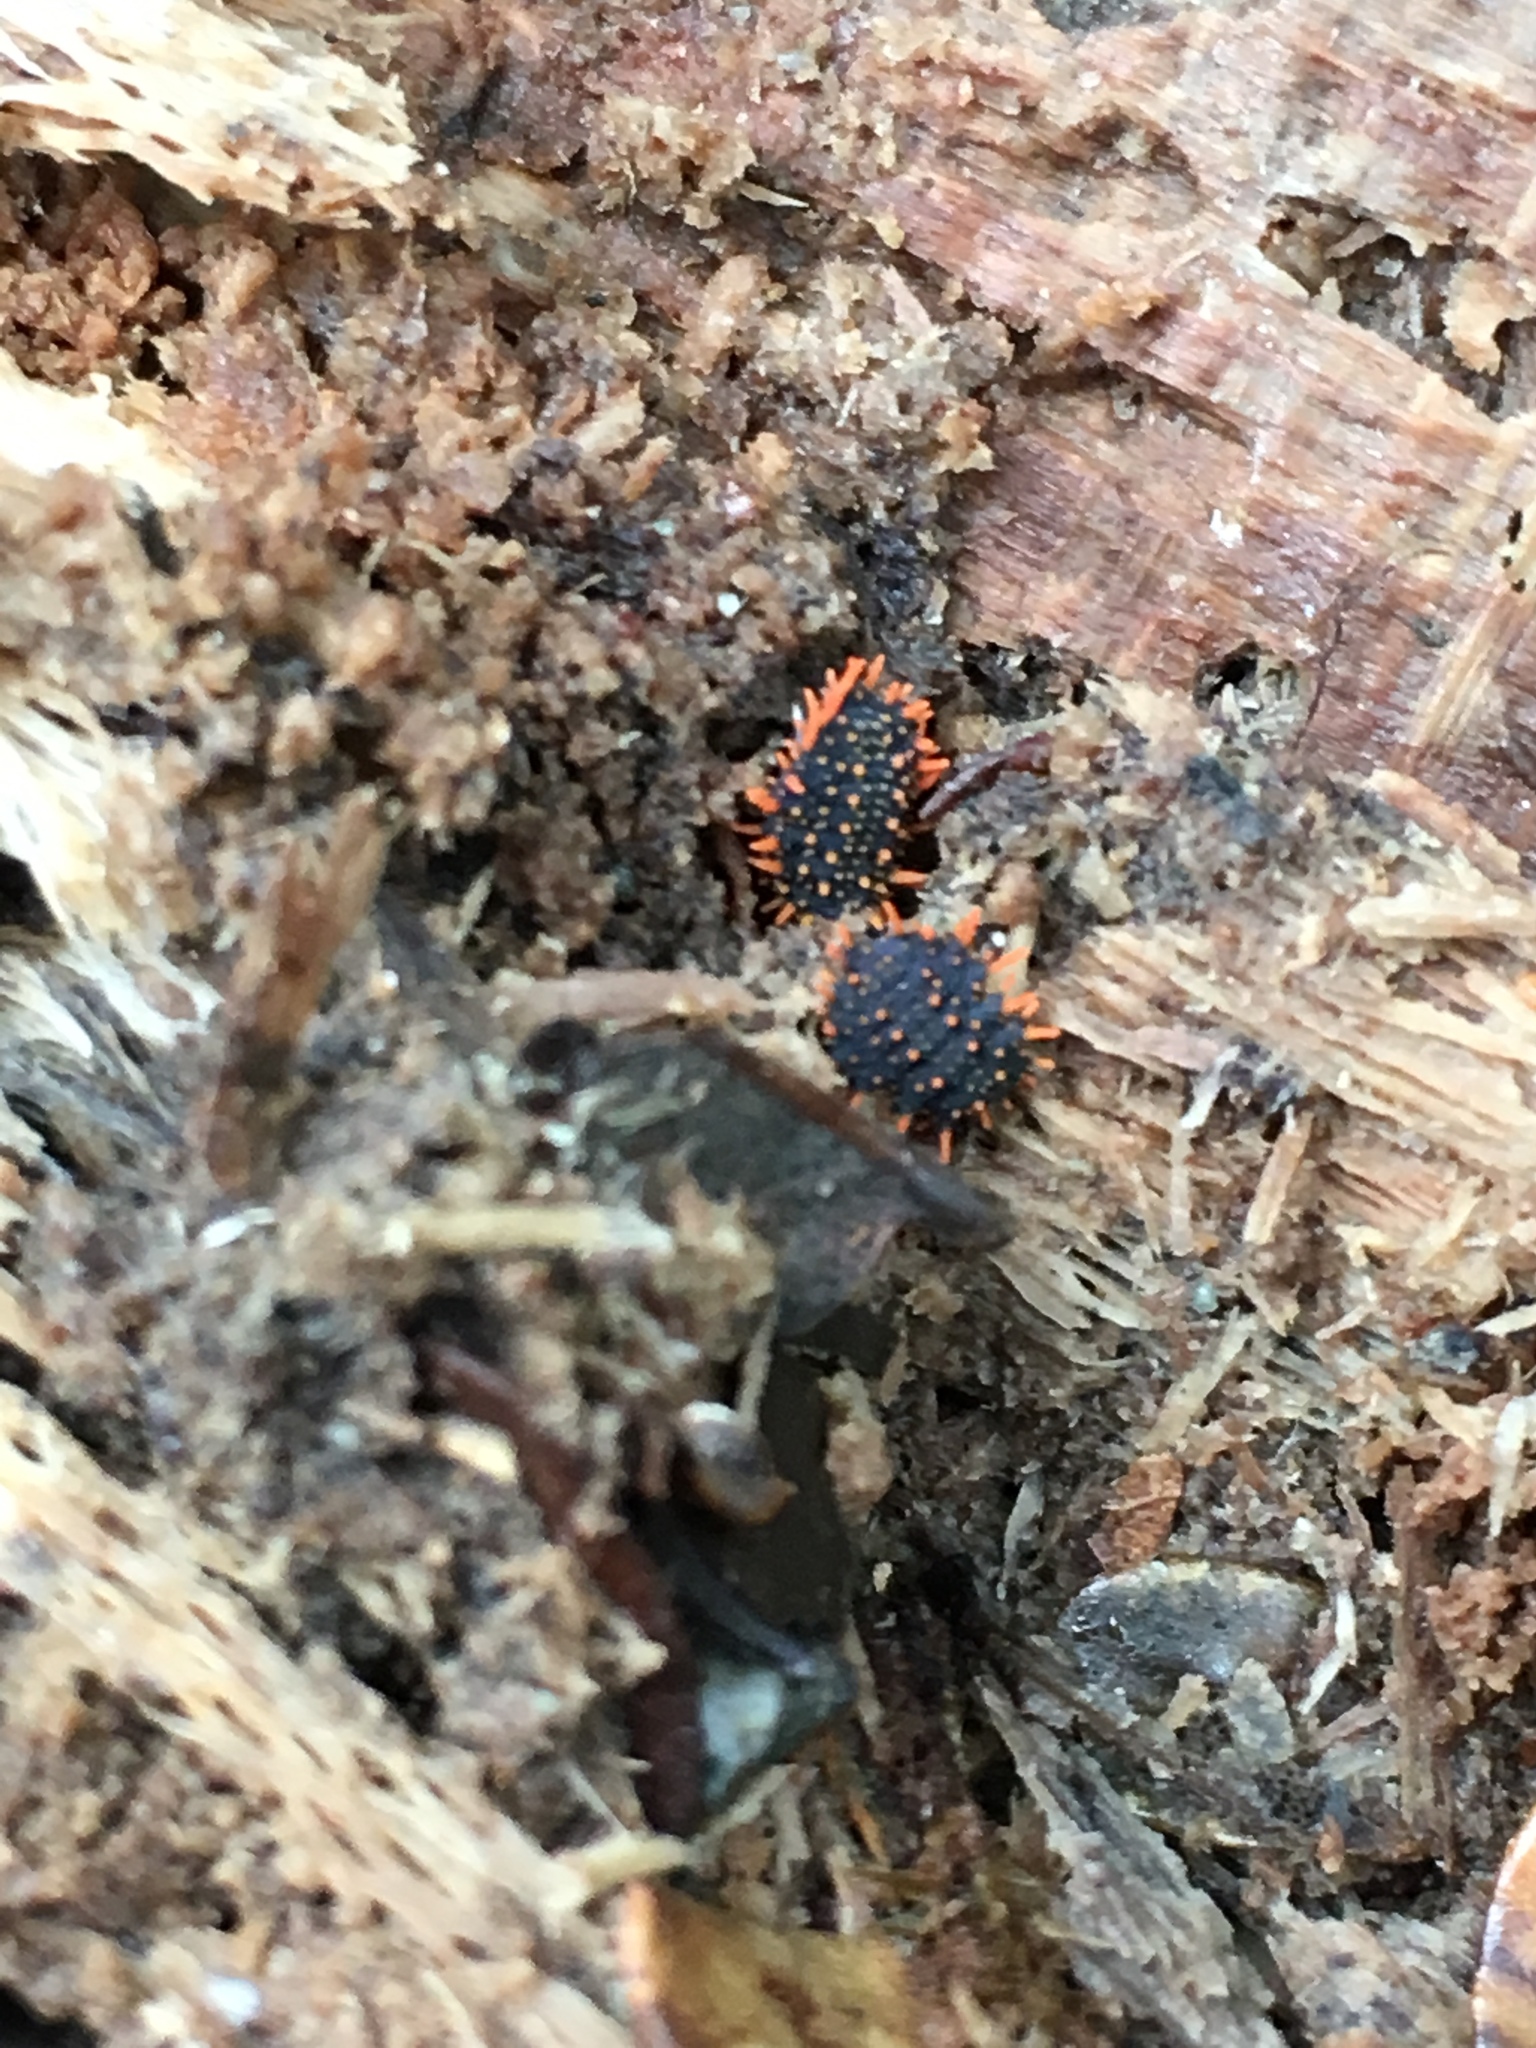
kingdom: Animalia
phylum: Arthropoda
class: Collembola
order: Poduromorpha
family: Neanuridae
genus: Holacanthella
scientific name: Holacanthella paucispinosa
